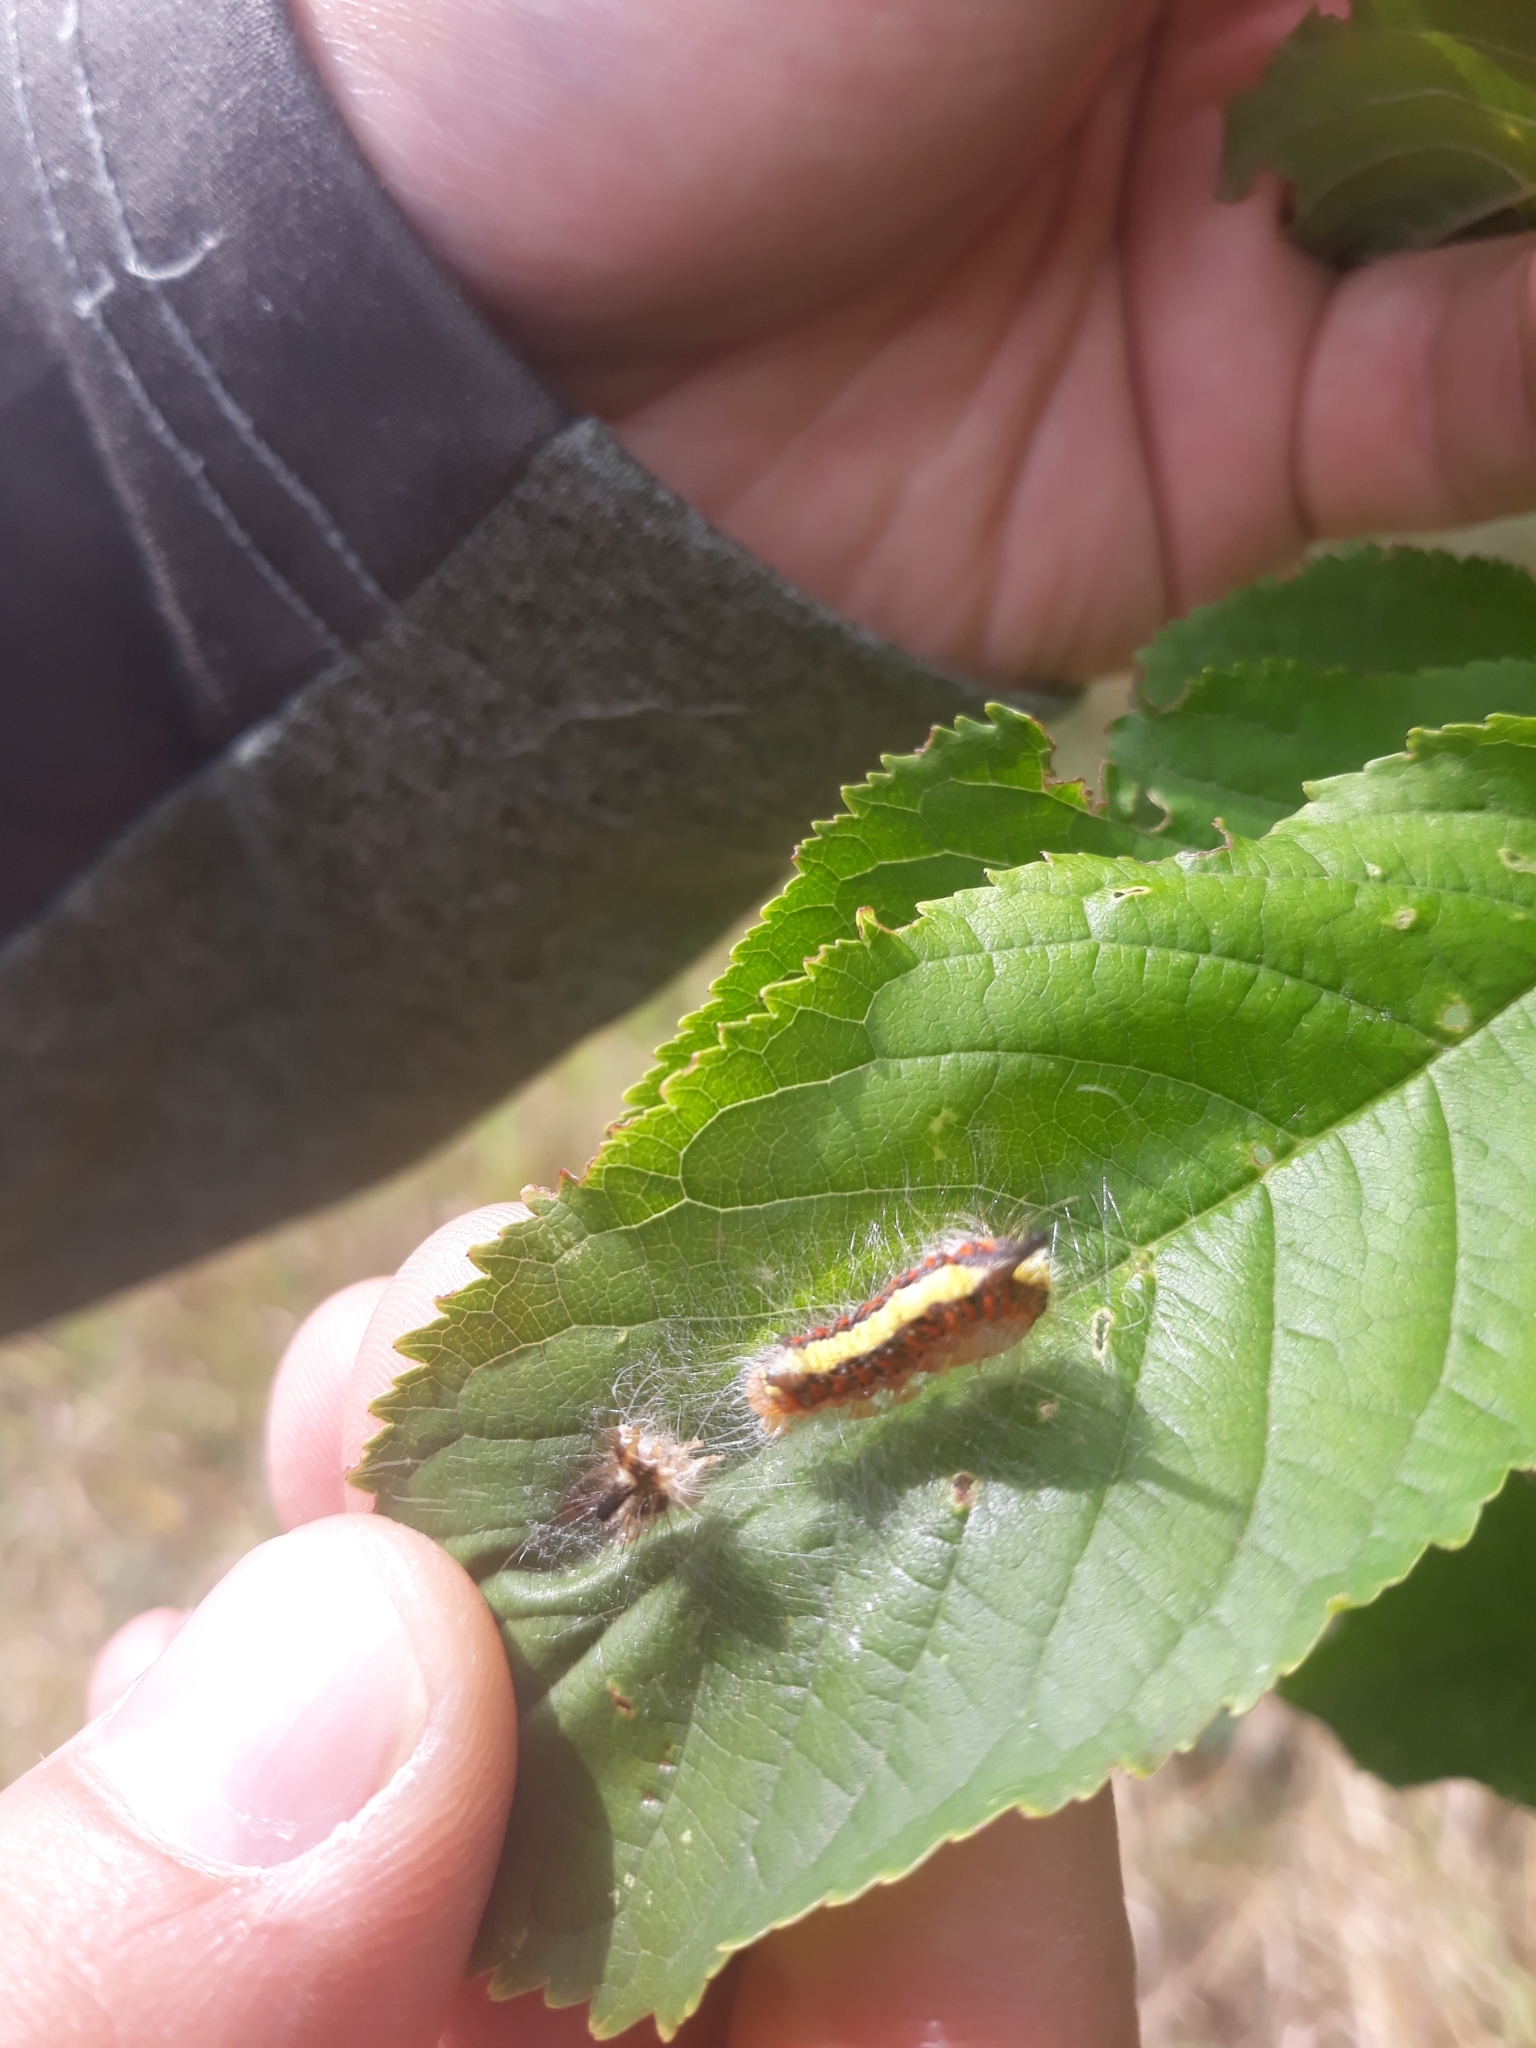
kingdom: Animalia
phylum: Arthropoda
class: Insecta
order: Lepidoptera
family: Noctuidae
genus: Acronicta
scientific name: Acronicta psi
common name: Grey dagger
